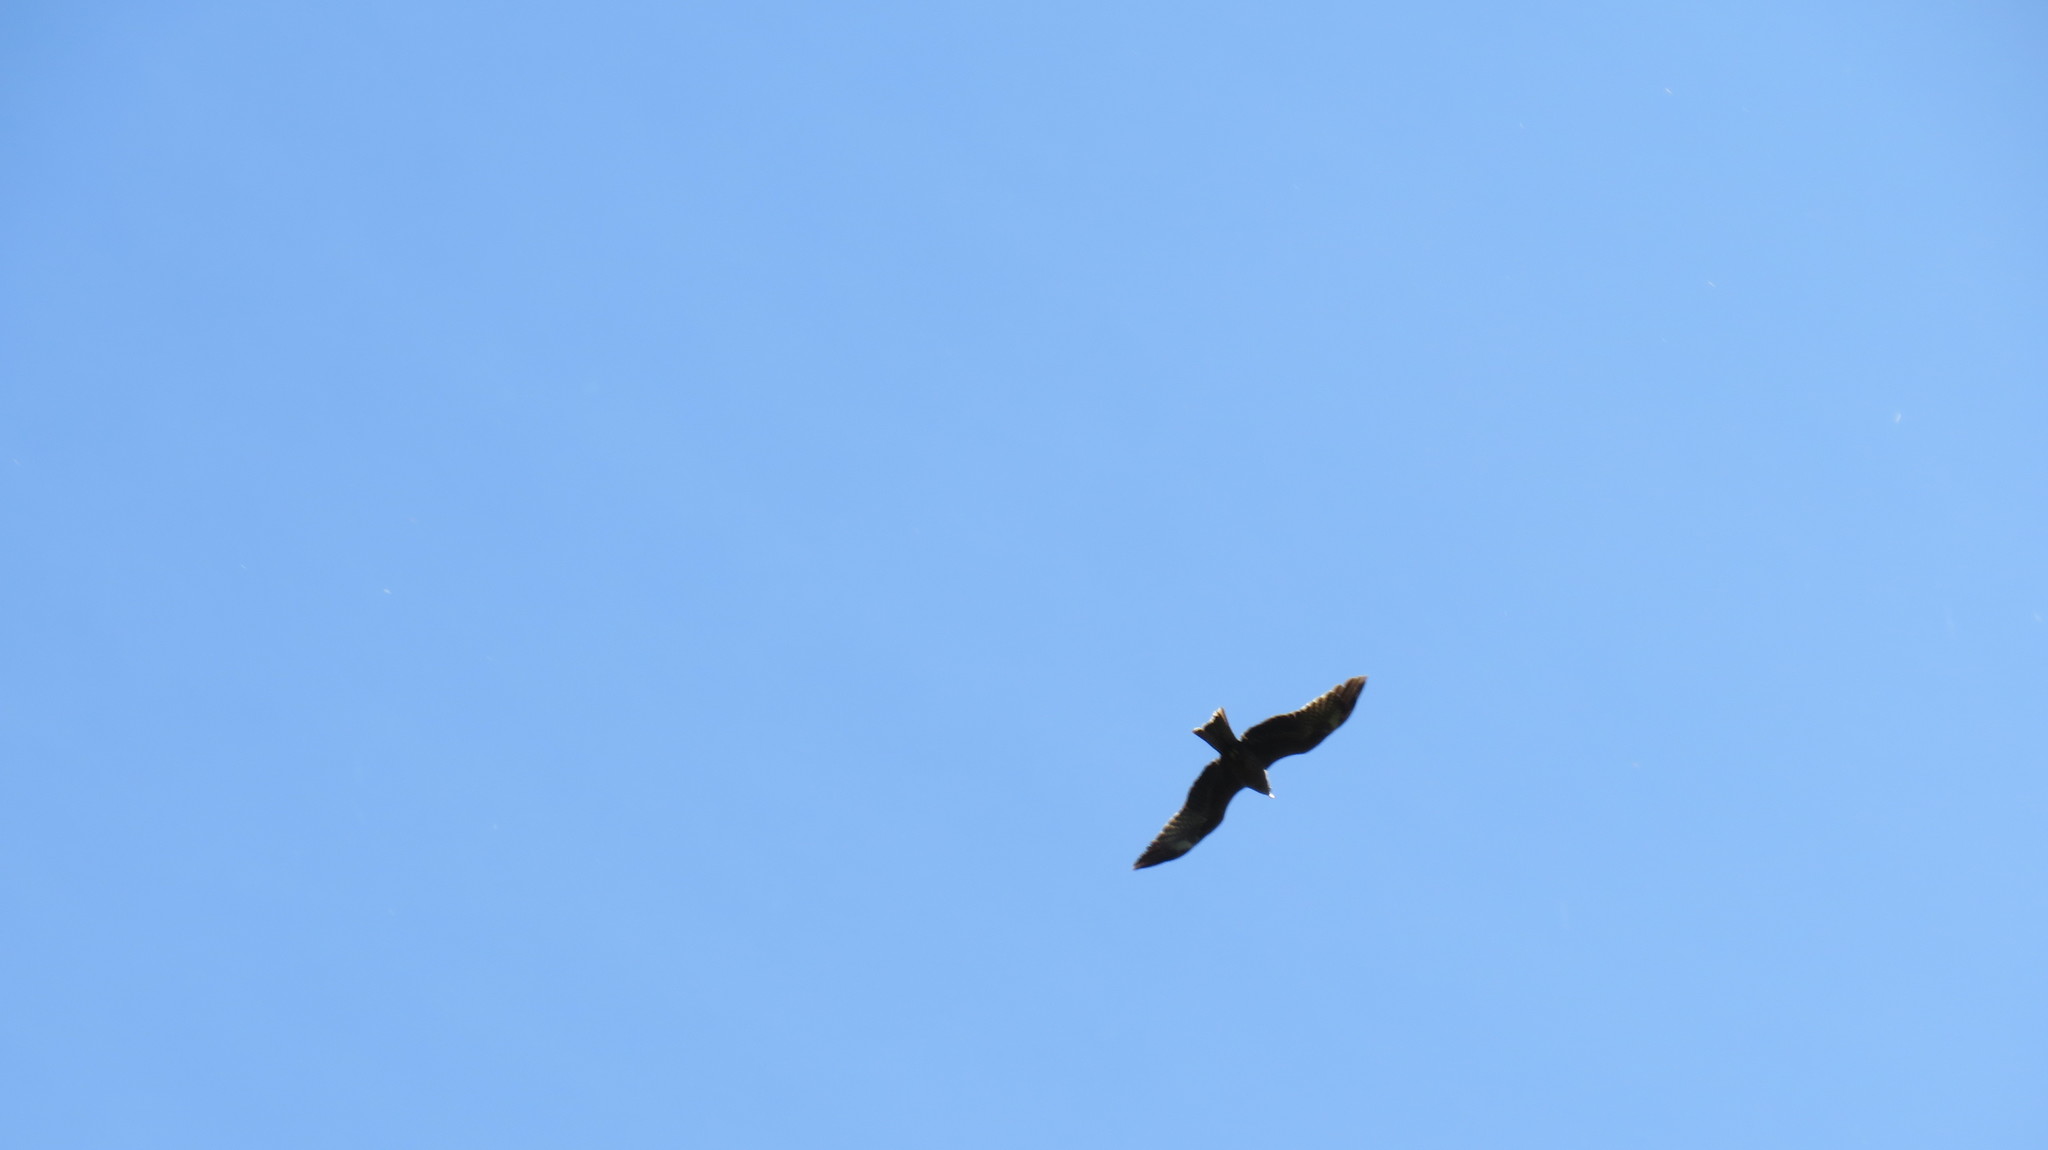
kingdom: Animalia
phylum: Chordata
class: Aves
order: Accipitriformes
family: Accipitridae
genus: Milvus
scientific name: Milvus migrans
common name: Black kite
